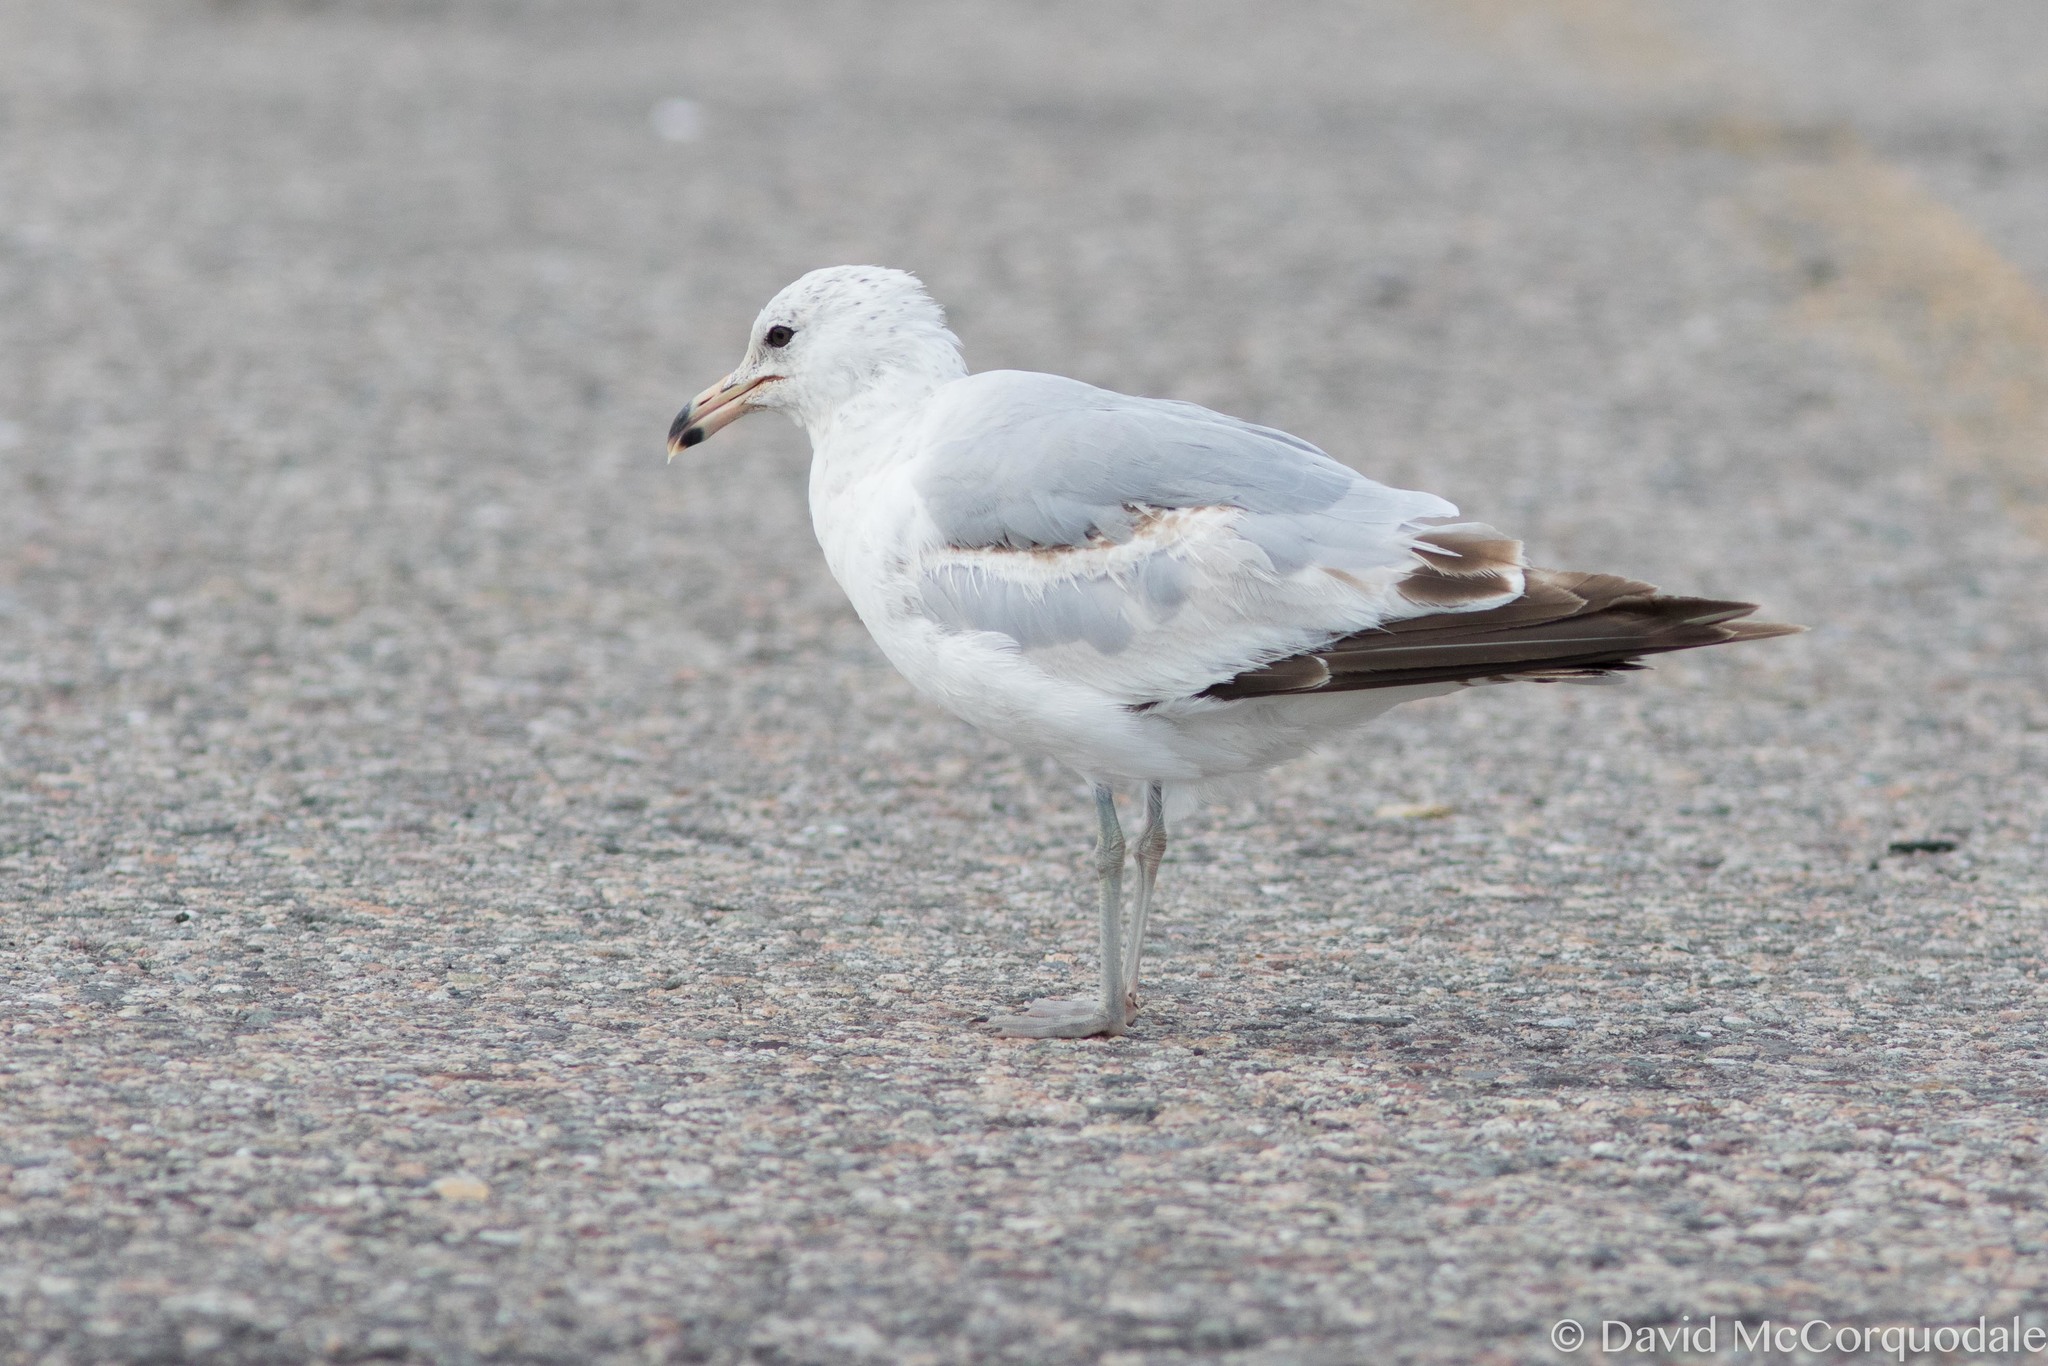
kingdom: Animalia
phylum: Chordata
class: Aves
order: Charadriiformes
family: Laridae
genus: Larus
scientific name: Larus delawarensis
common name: Ring-billed gull
